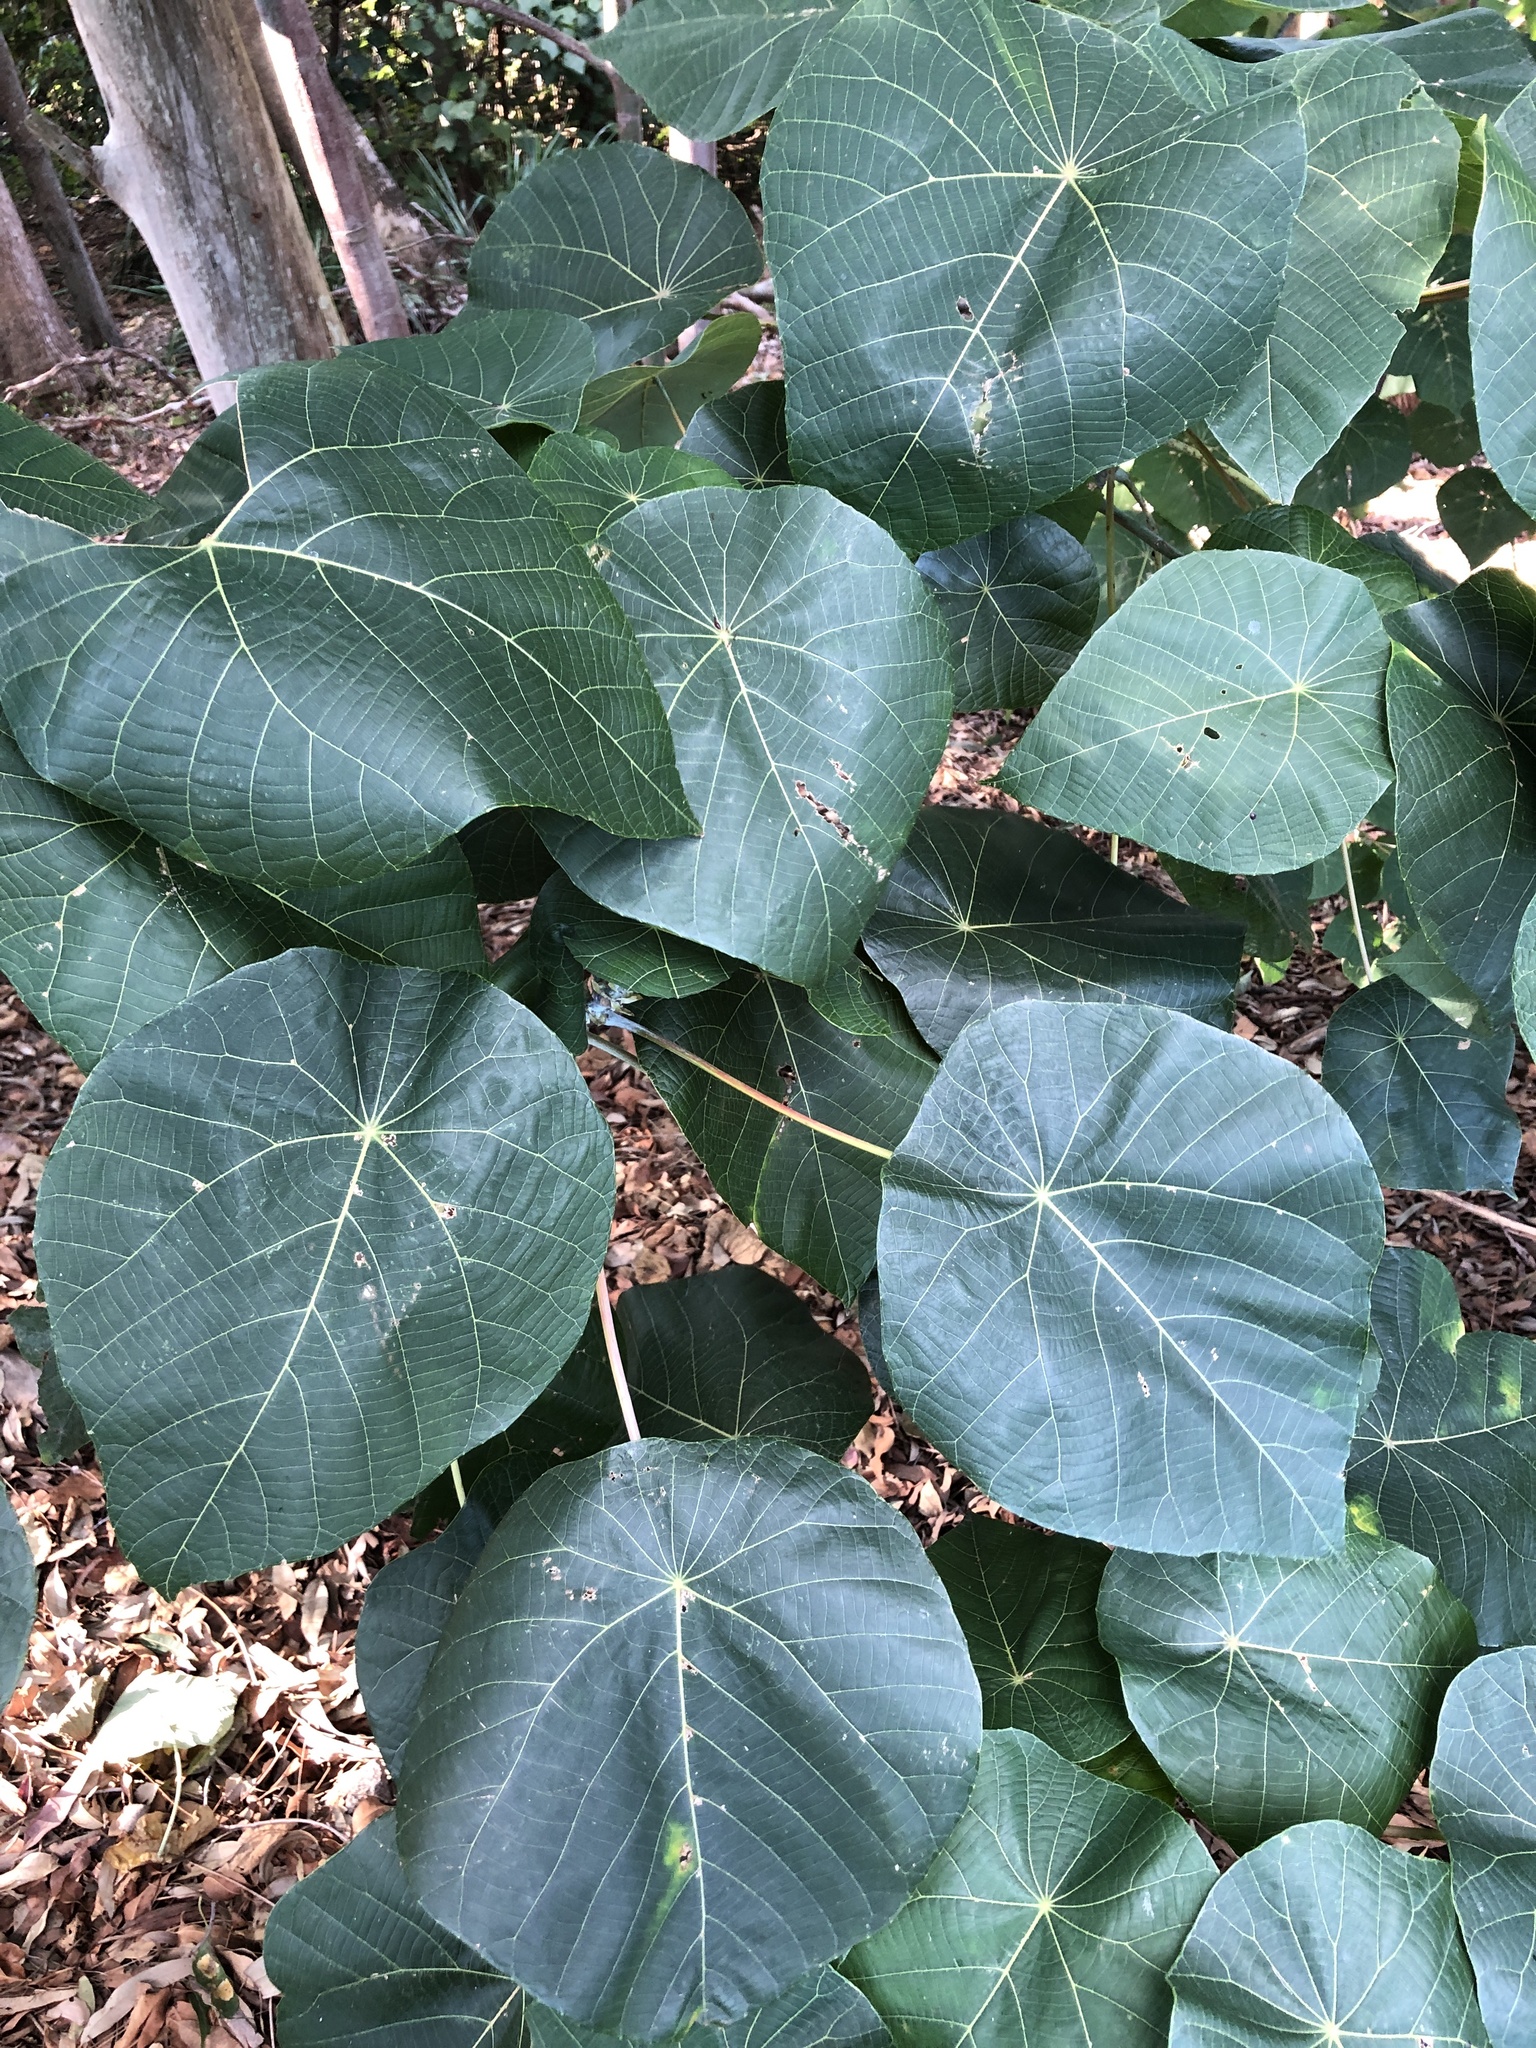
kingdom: Plantae
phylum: Tracheophyta
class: Magnoliopsida
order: Malpighiales
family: Euphorbiaceae
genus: Macaranga
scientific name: Macaranga tanarius
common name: Parasol leaf tree
